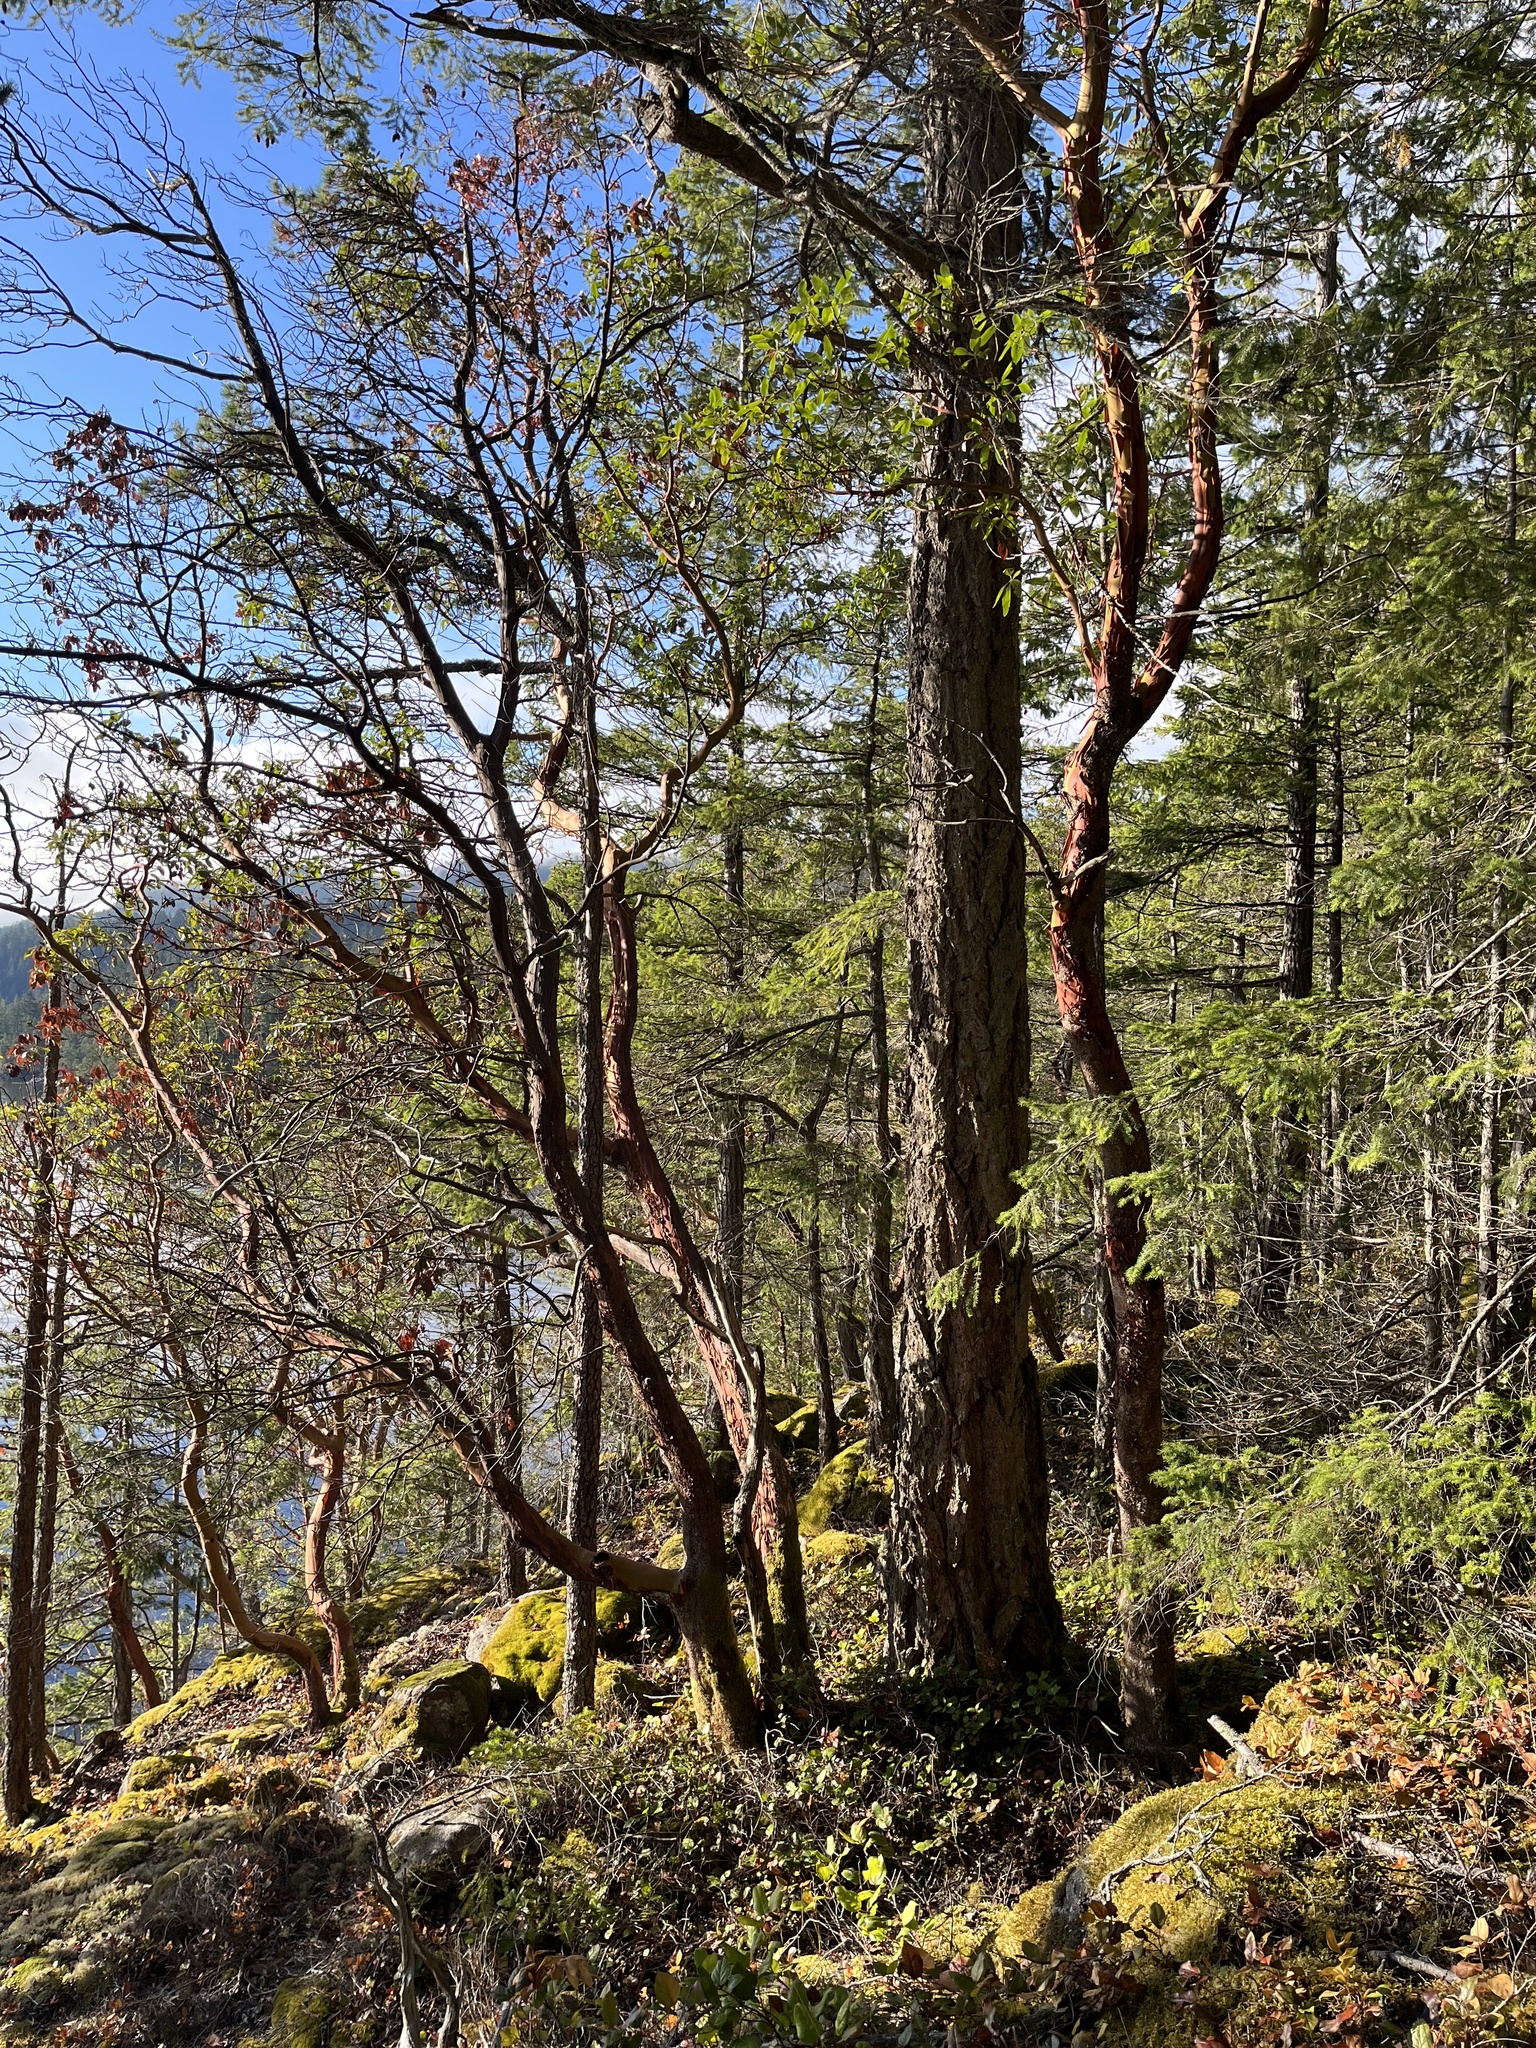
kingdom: Plantae
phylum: Tracheophyta
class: Magnoliopsida
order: Ericales
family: Ericaceae
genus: Arbutus
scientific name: Arbutus menziesii
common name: Pacific madrone
